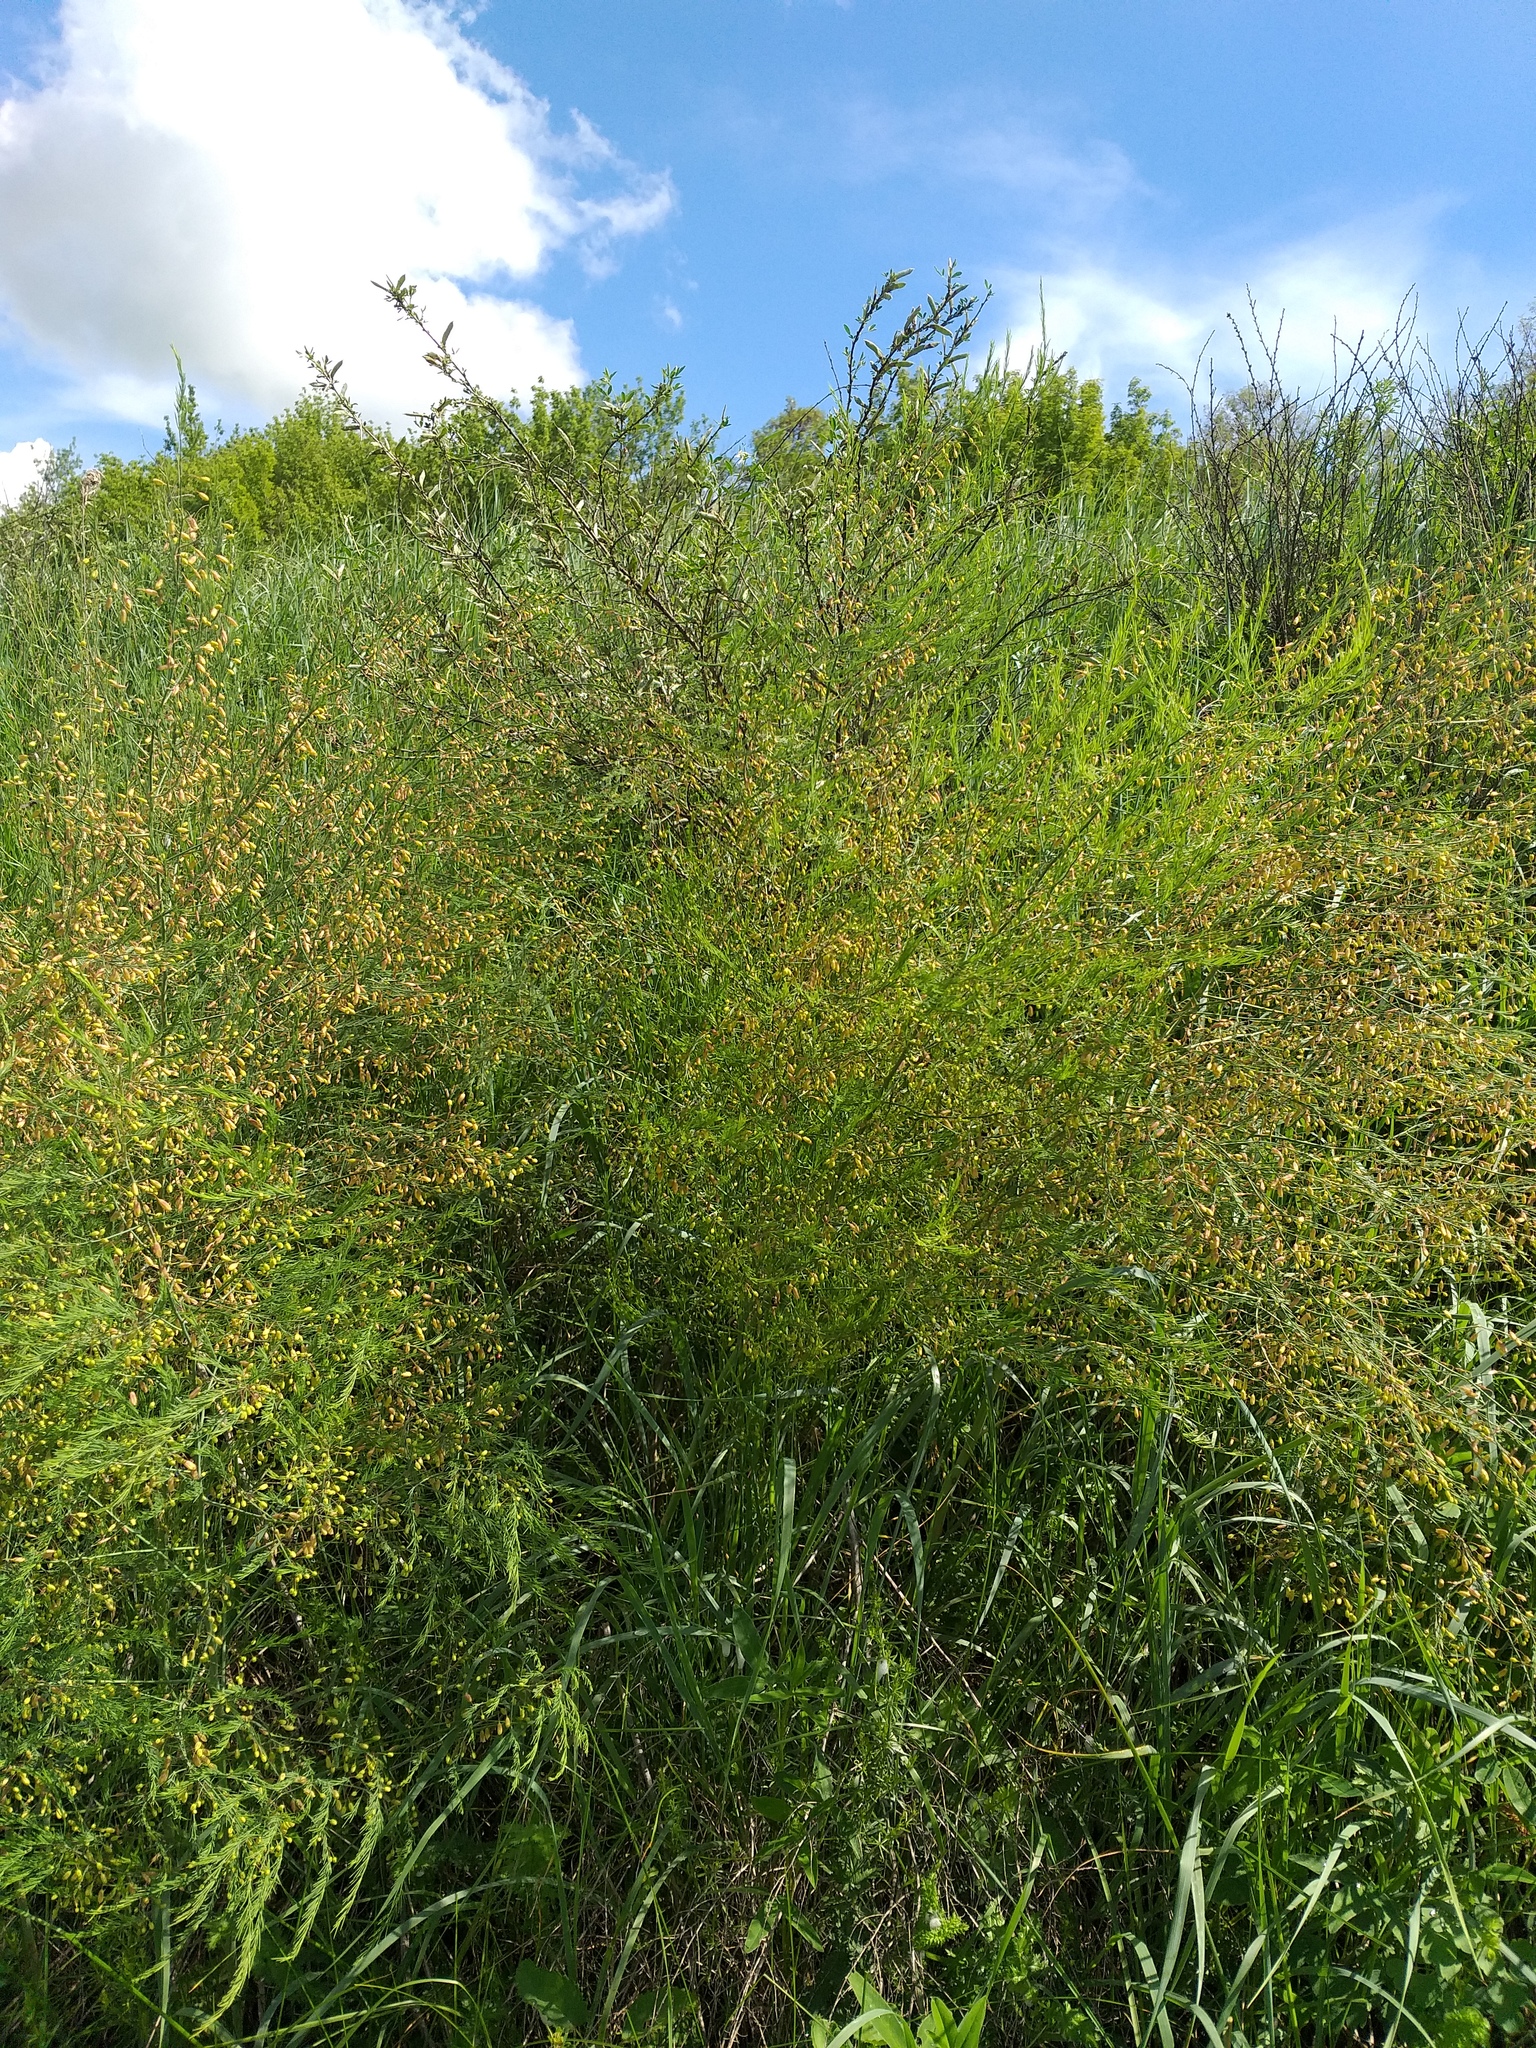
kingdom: Plantae
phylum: Tracheophyta
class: Liliopsida
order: Asparagales
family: Asparagaceae
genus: Asparagus
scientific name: Asparagus officinalis
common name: Garden asparagus
